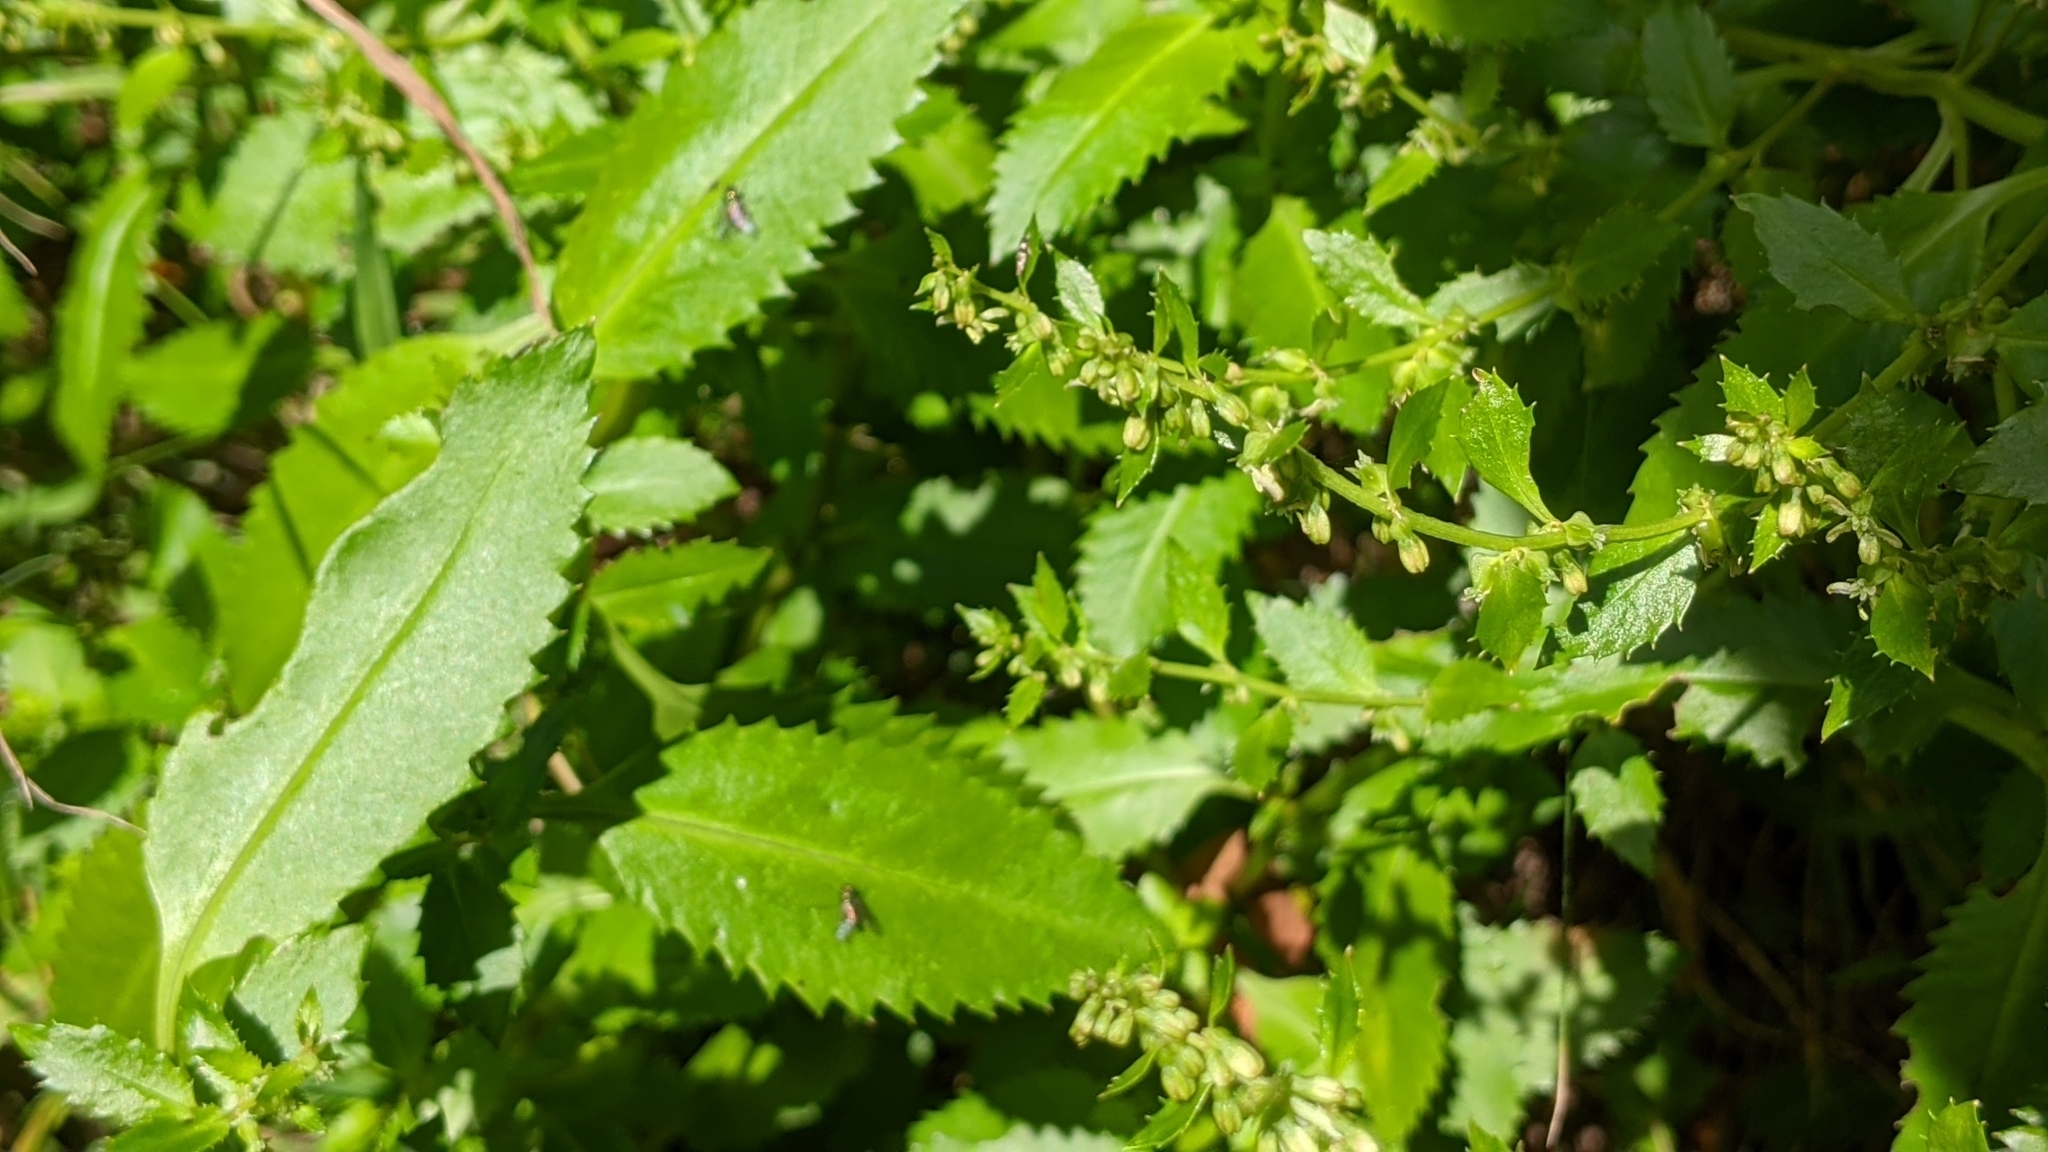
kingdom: Plantae
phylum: Tracheophyta
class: Magnoliopsida
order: Saxifragales
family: Haloragaceae
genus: Haloragis
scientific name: Haloragis erecta
